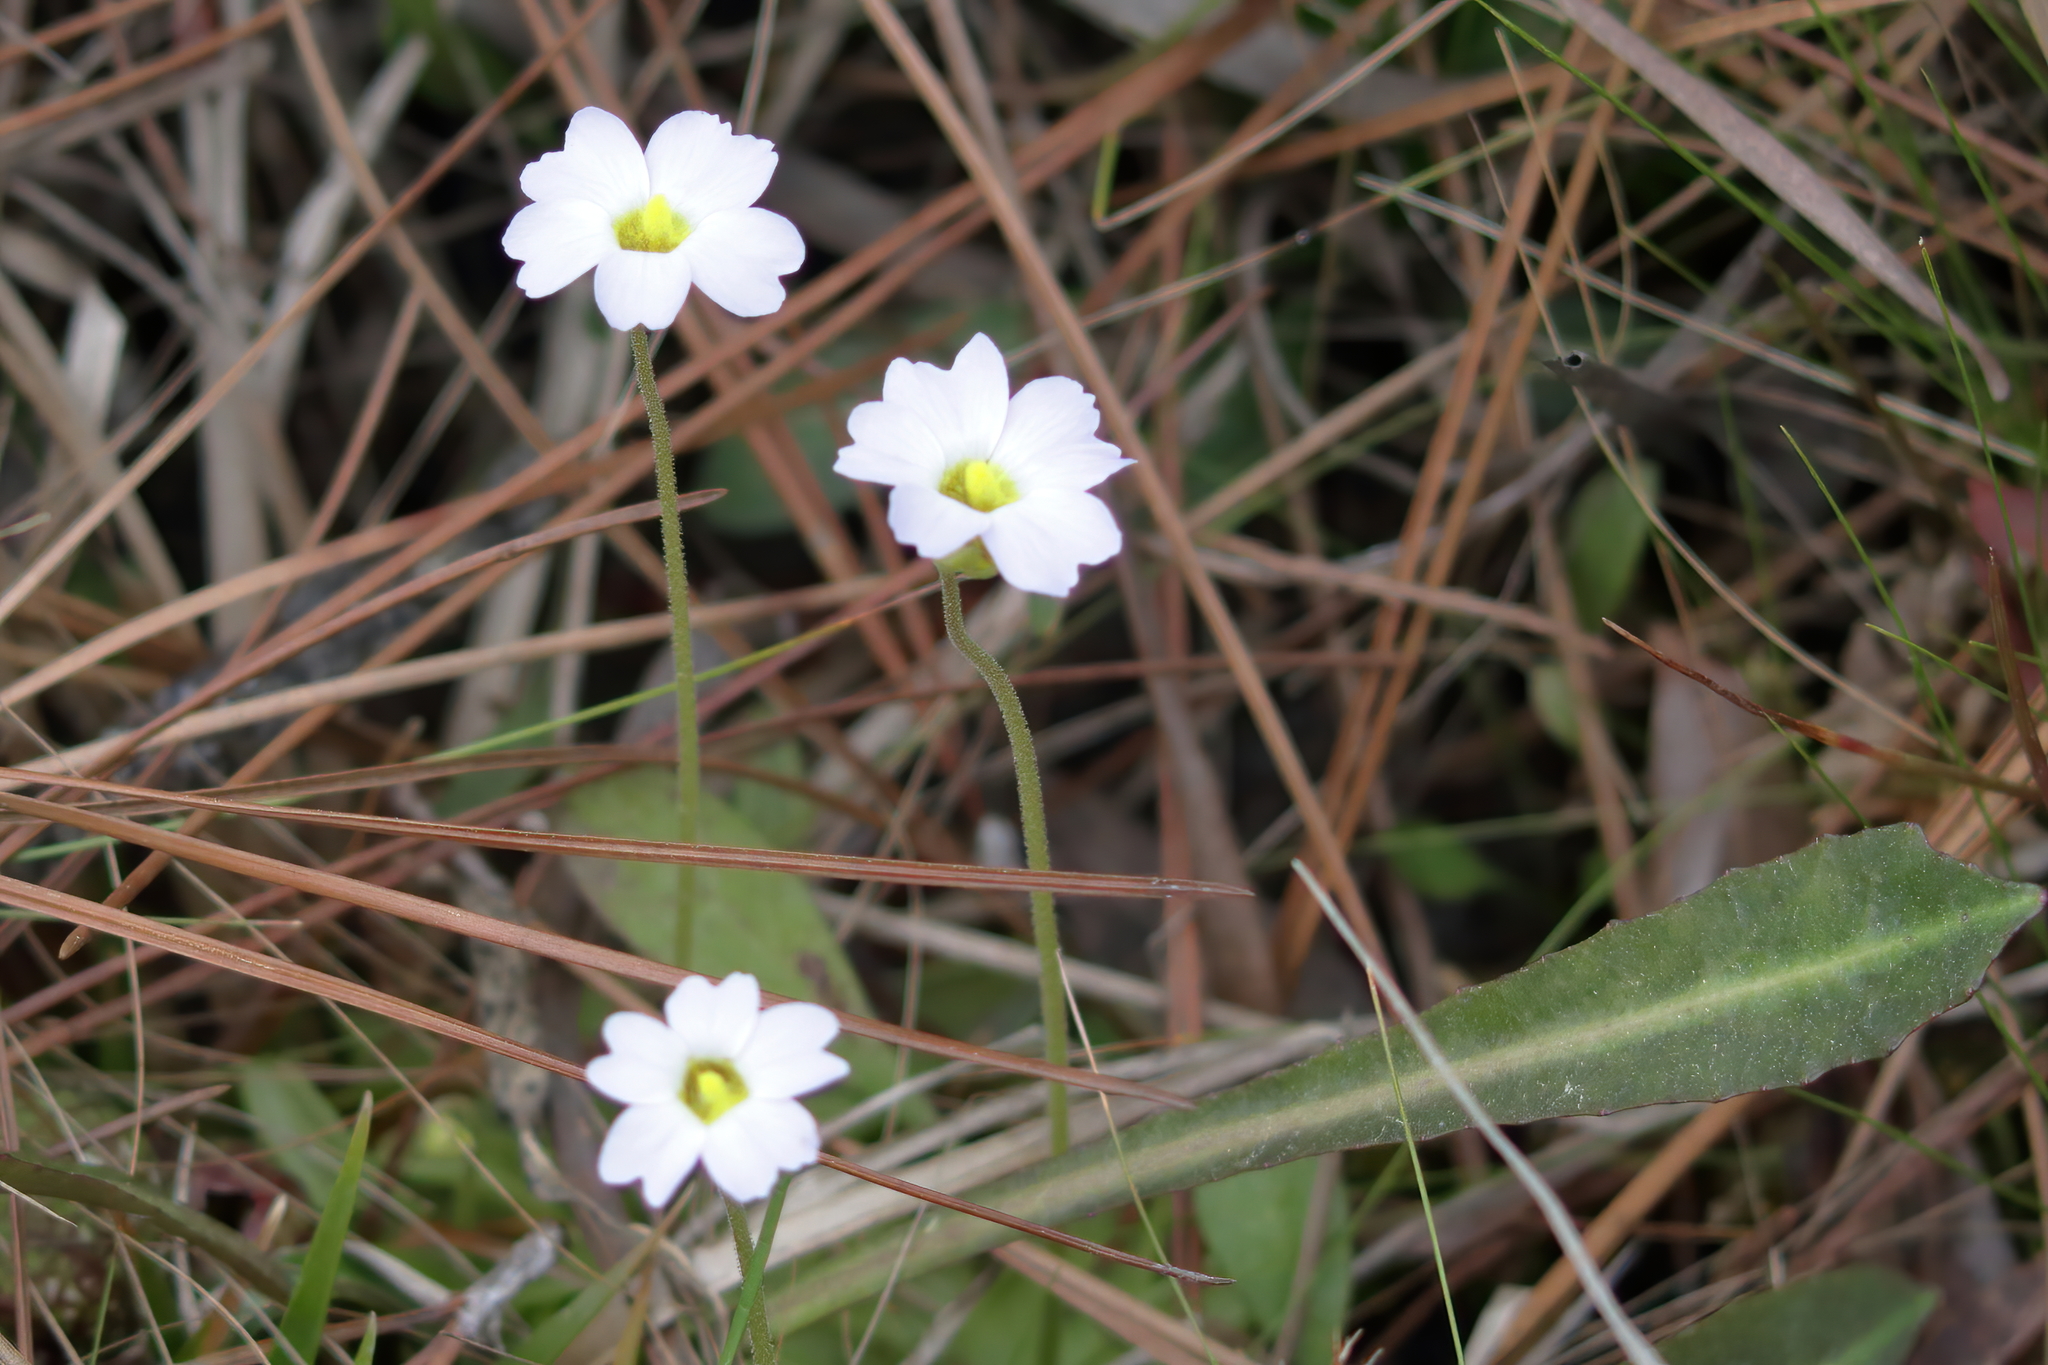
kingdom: Plantae
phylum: Tracheophyta
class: Magnoliopsida
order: Lamiales
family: Lentibulariaceae
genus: Pinguicula
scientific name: Pinguicula primuliflora
